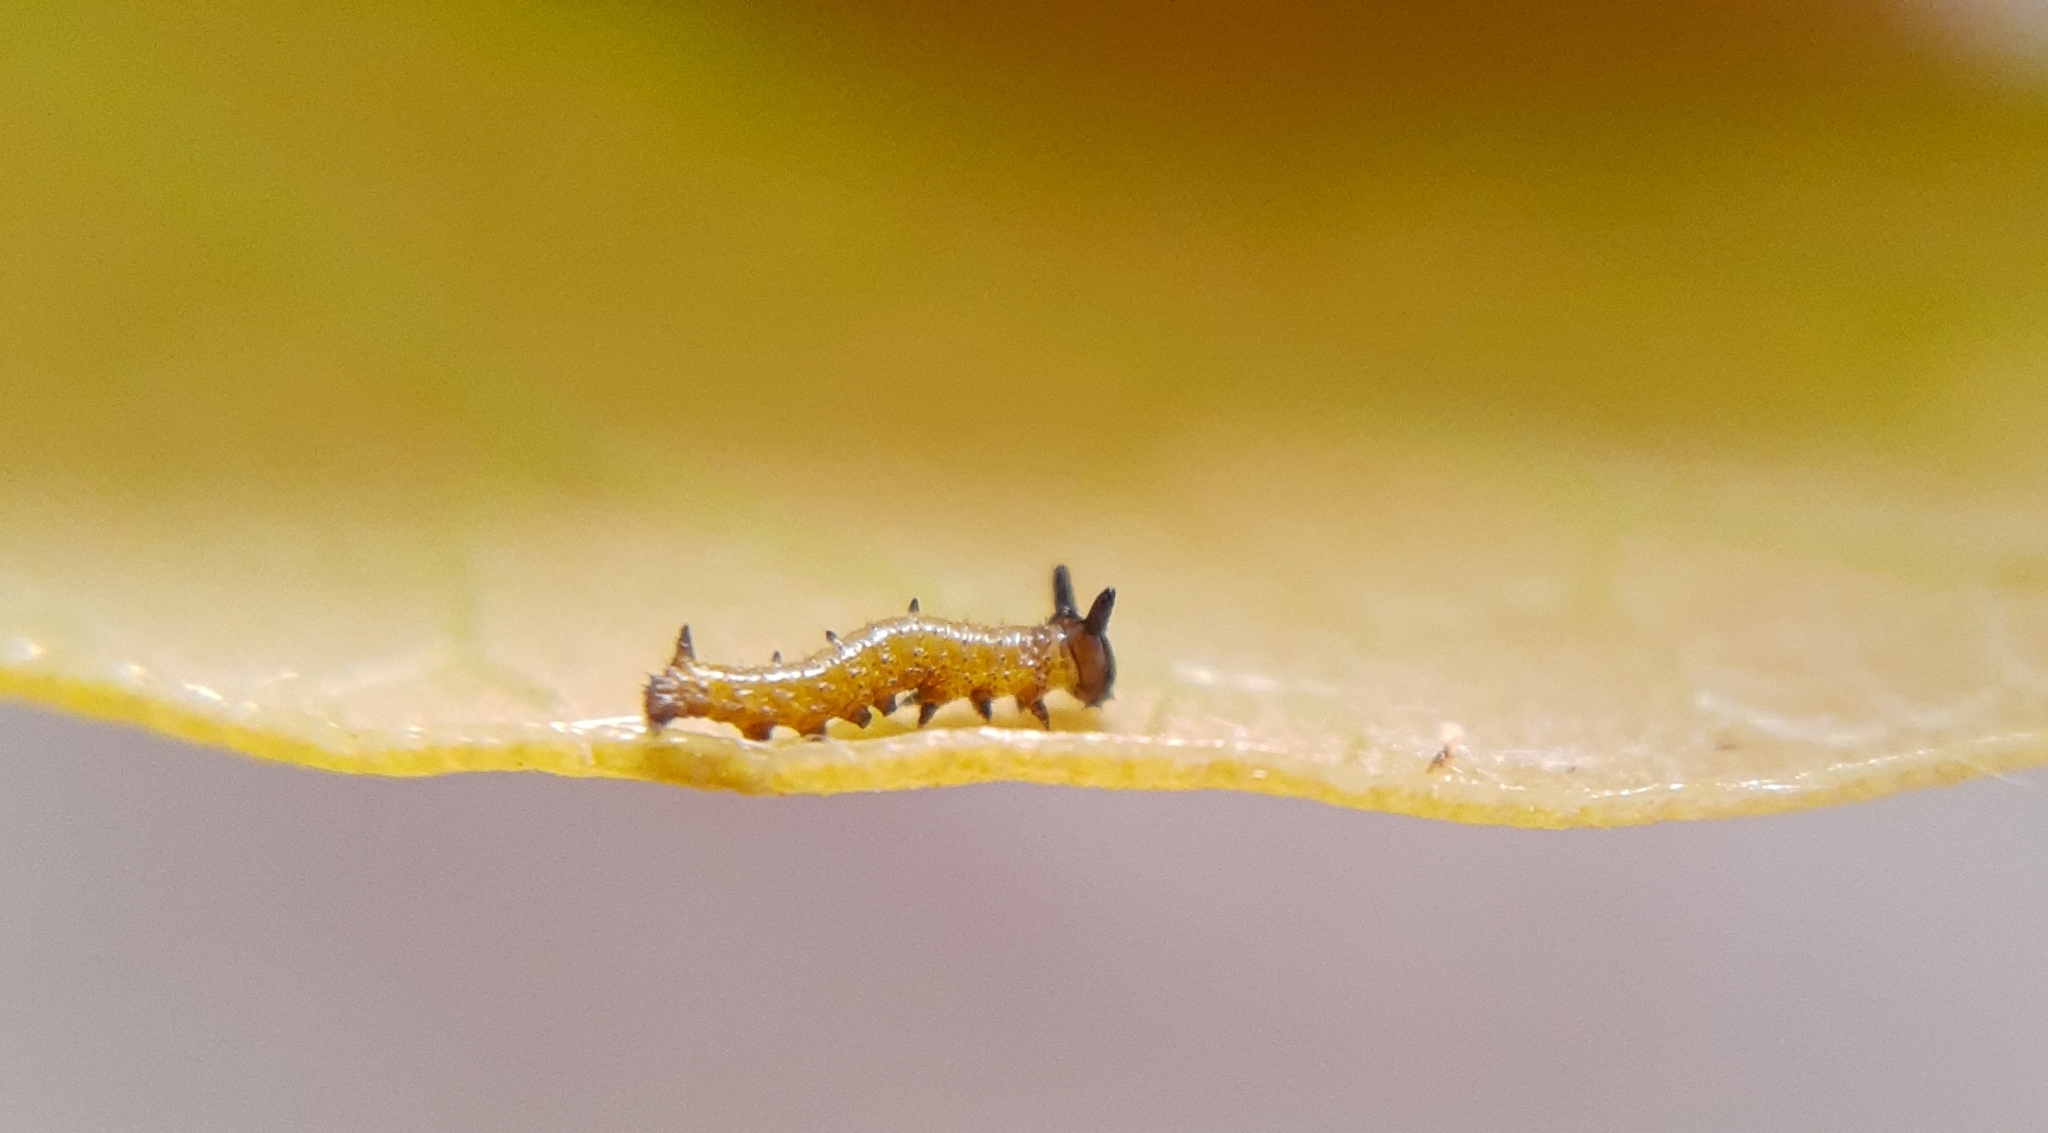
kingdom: Animalia
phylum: Arthropoda
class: Insecta
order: Lepidoptera
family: Nymphalidae
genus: Marpesia
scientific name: Marpesia petreus
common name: Red dagger wing
